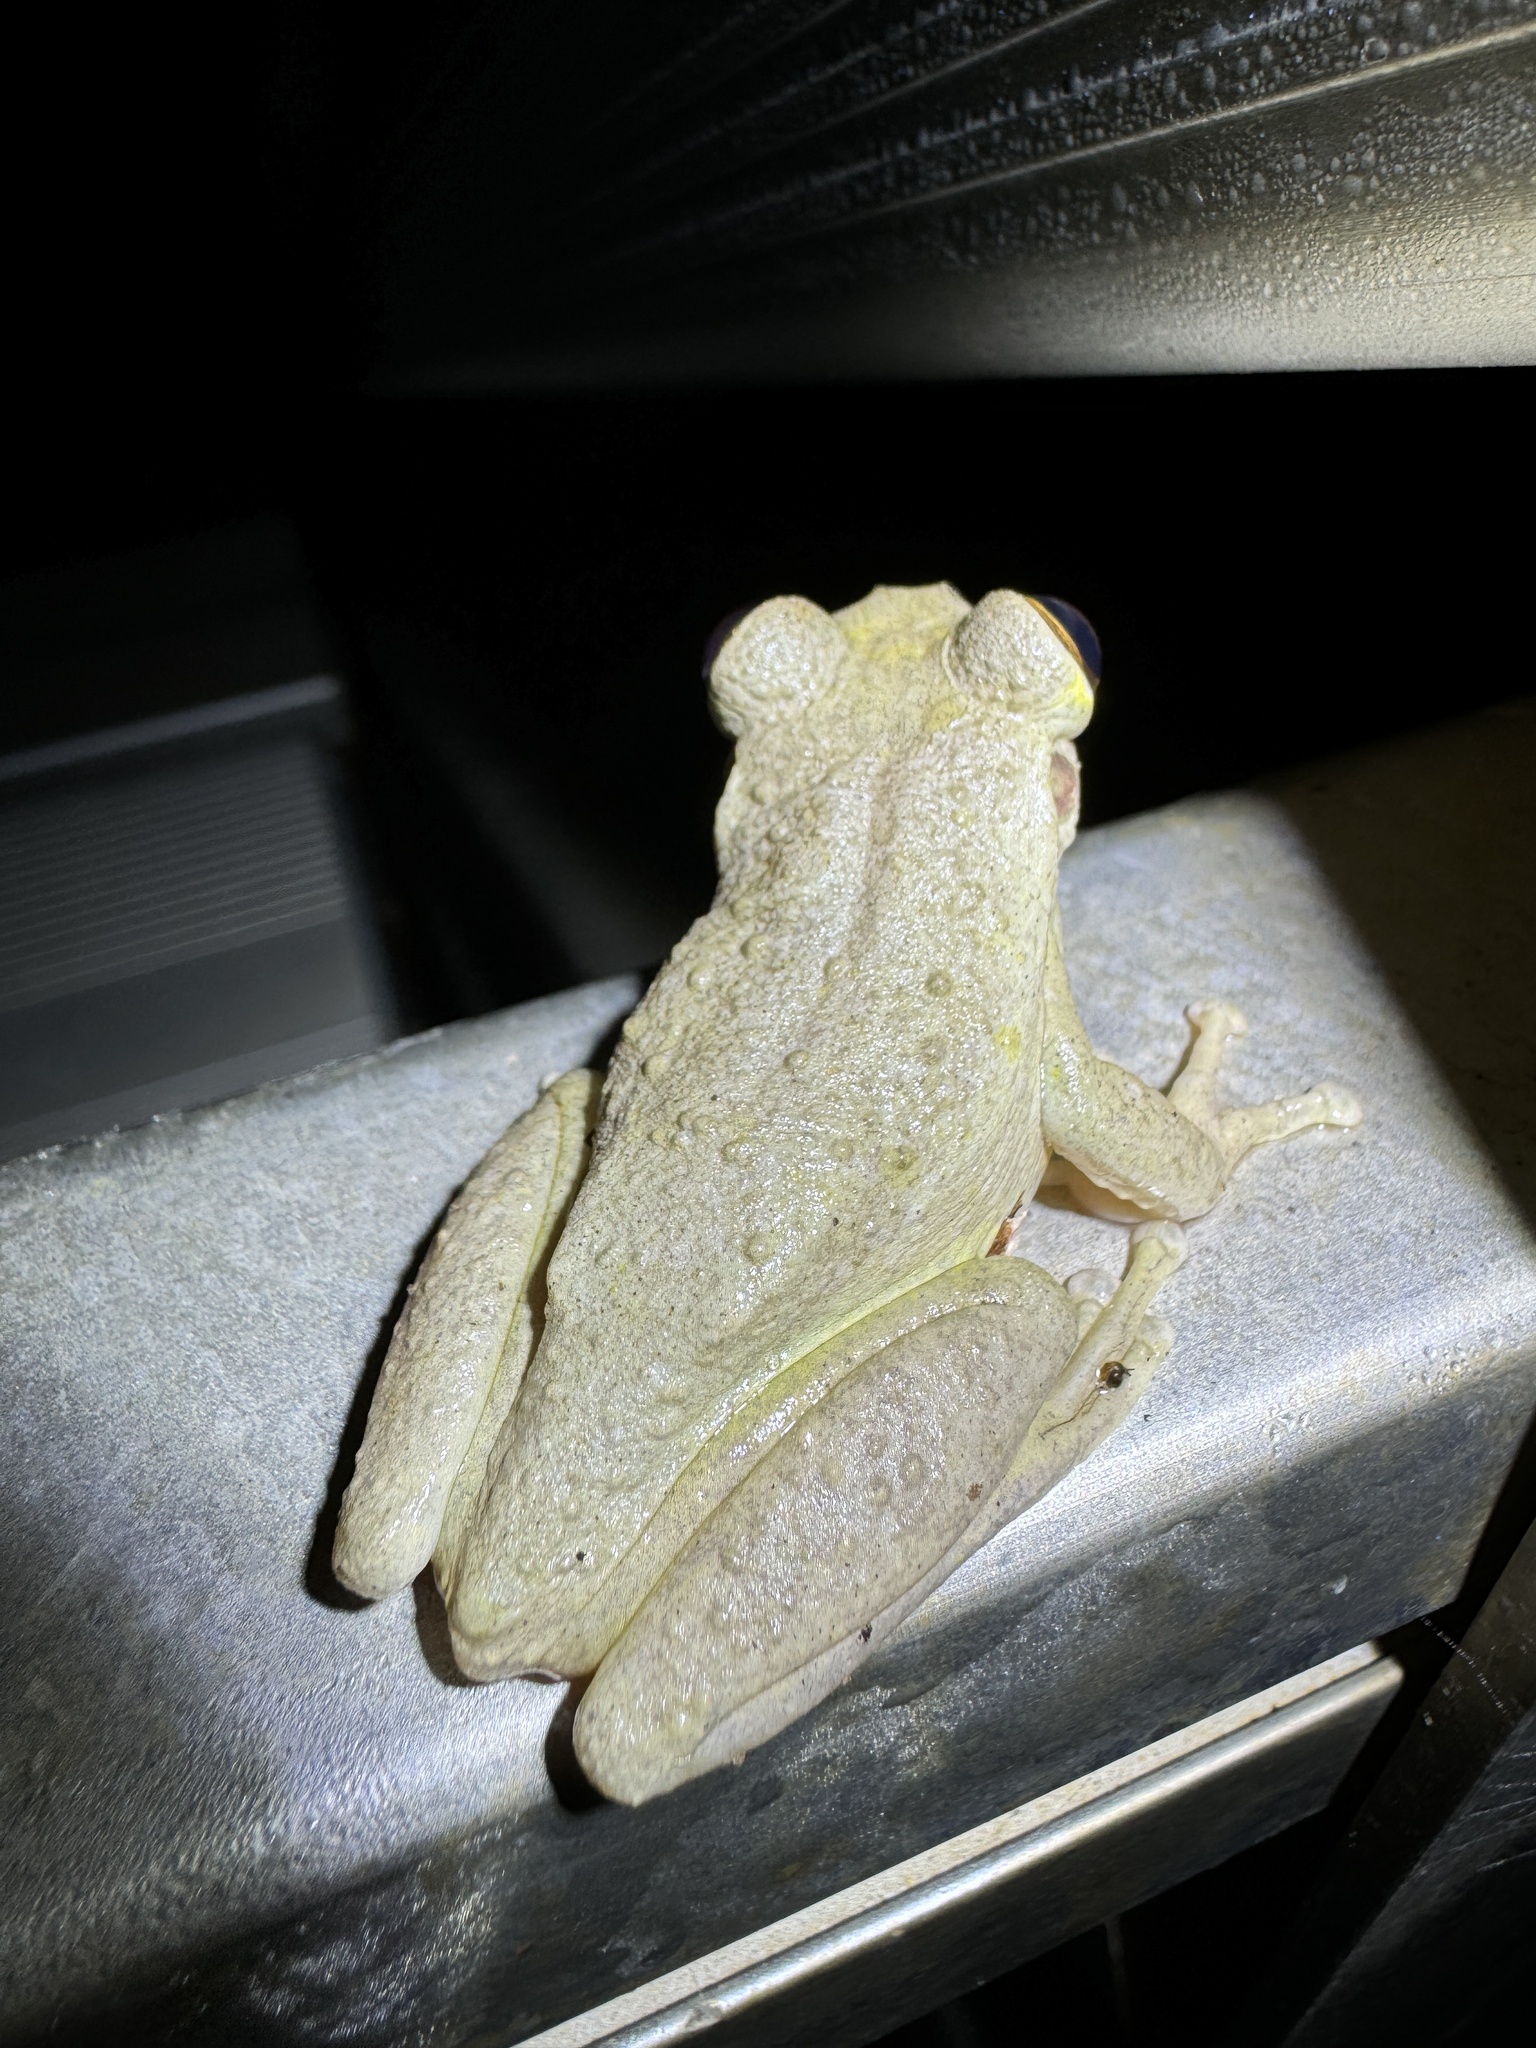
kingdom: Animalia
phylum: Chordata
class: Amphibia
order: Anura
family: Hylidae
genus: Osteopilus
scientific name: Osteopilus septentrionalis
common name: Cuban treefrog
